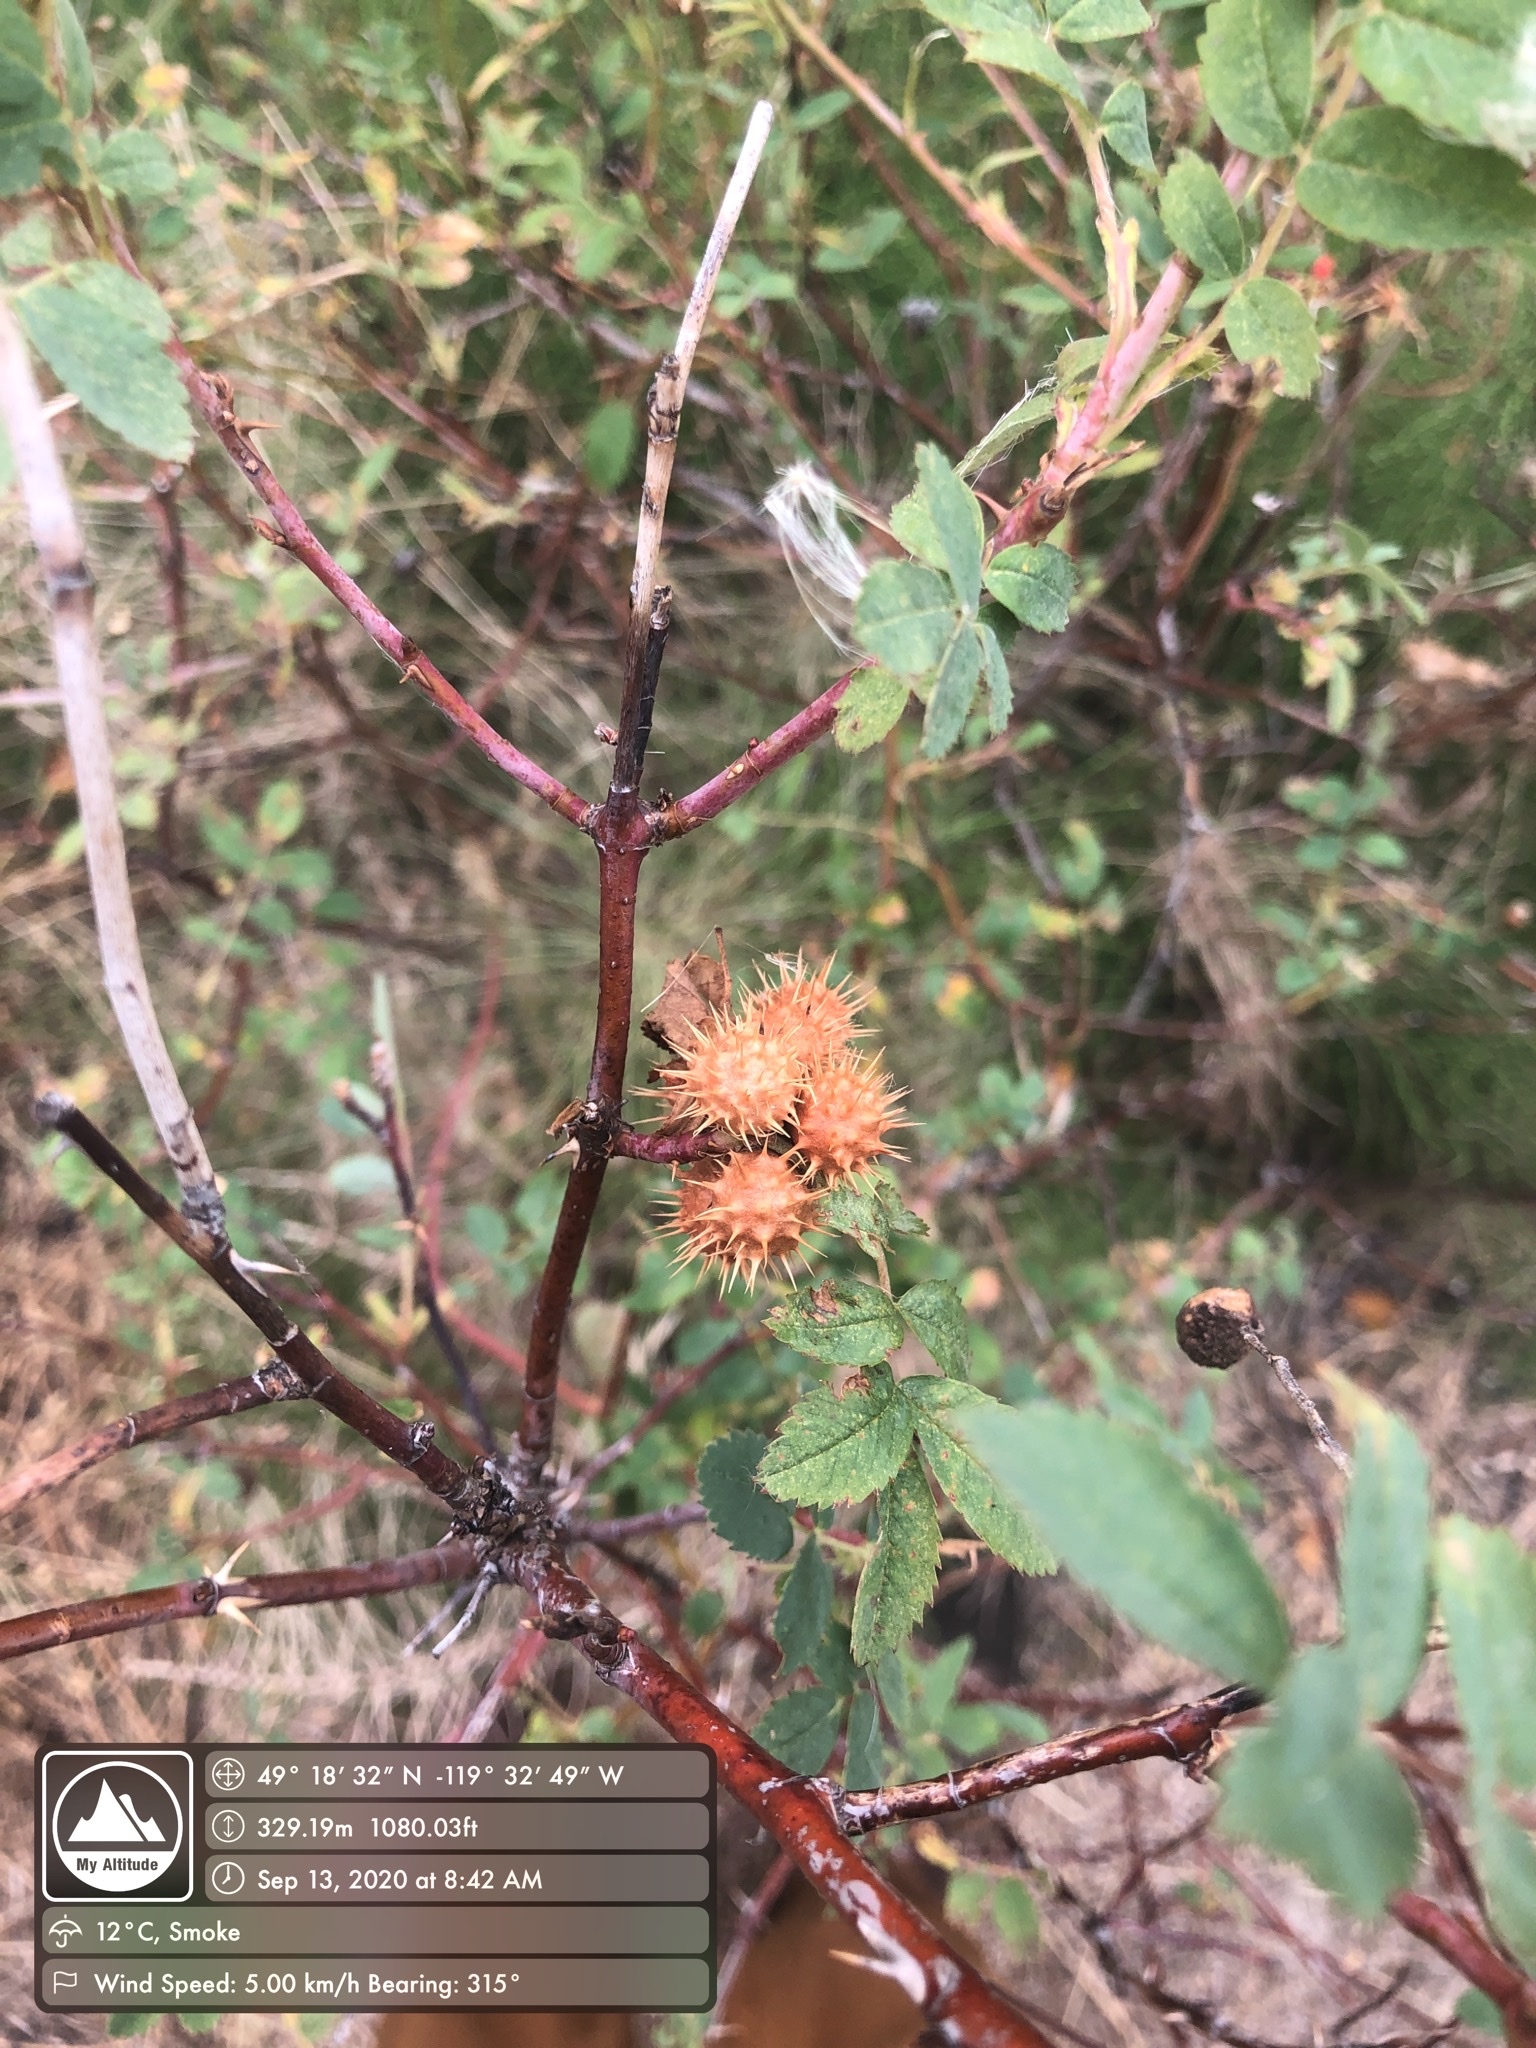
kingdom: Animalia
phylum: Arthropoda
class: Insecta
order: Hymenoptera
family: Cynipidae
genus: Diplolepis
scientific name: Diplolepis bicolor
